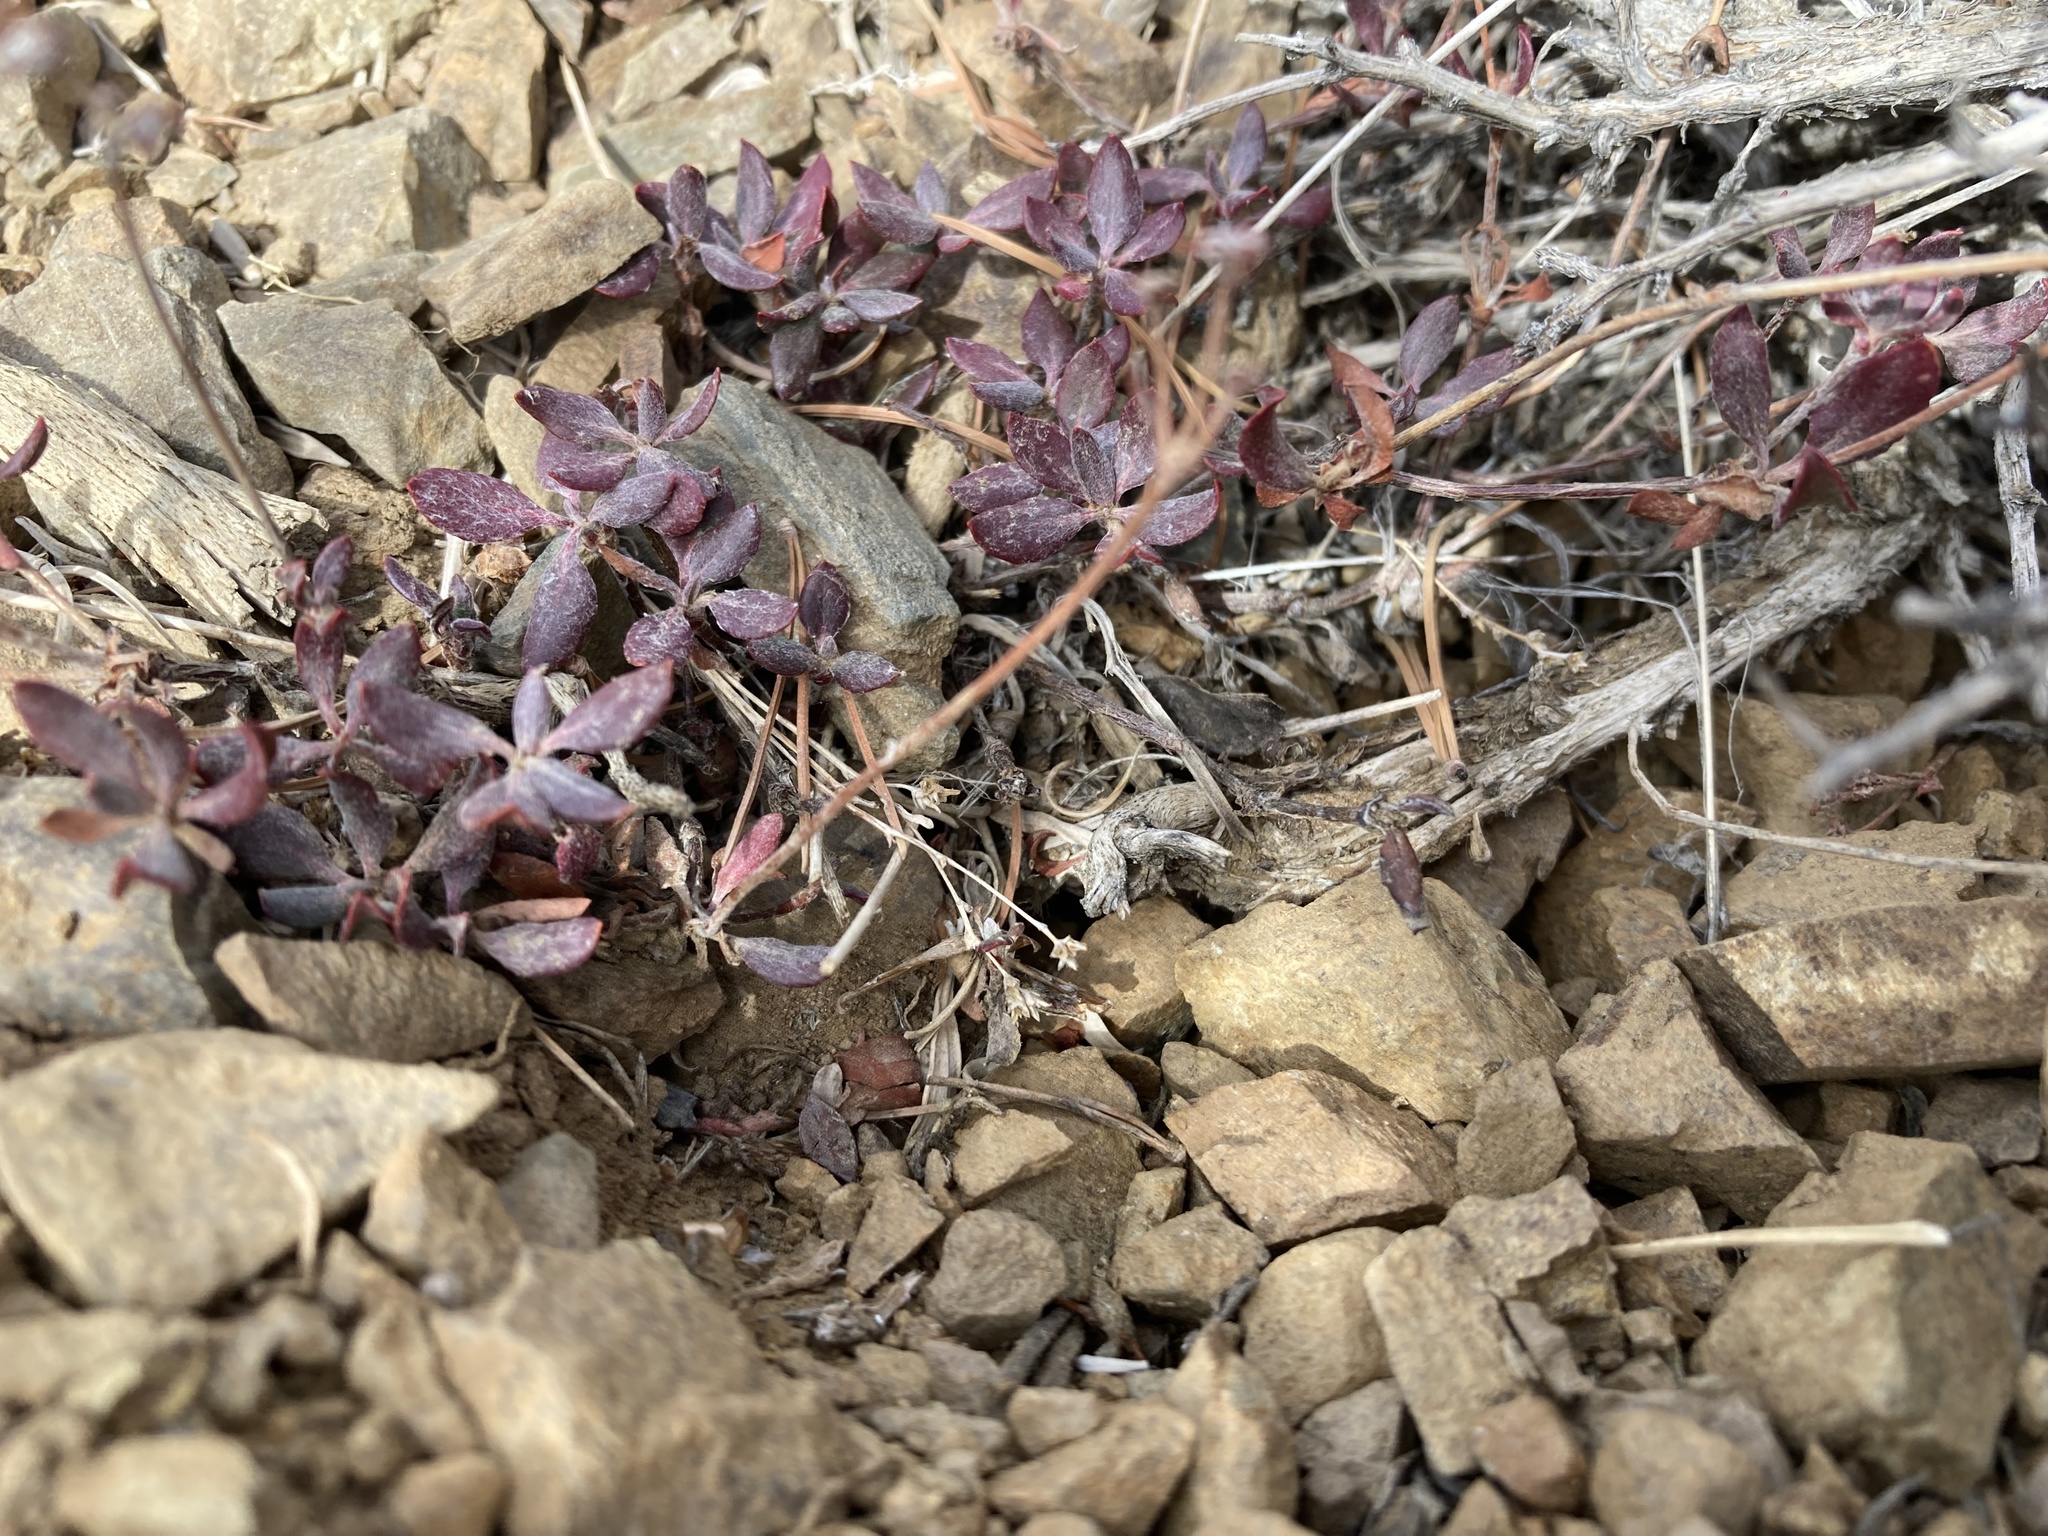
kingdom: Plantae
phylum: Tracheophyta
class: Magnoliopsida
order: Caryophyllales
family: Polygonaceae
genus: Eriogonum
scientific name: Eriogonum umbellatum
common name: Sulfur-buckwheat
